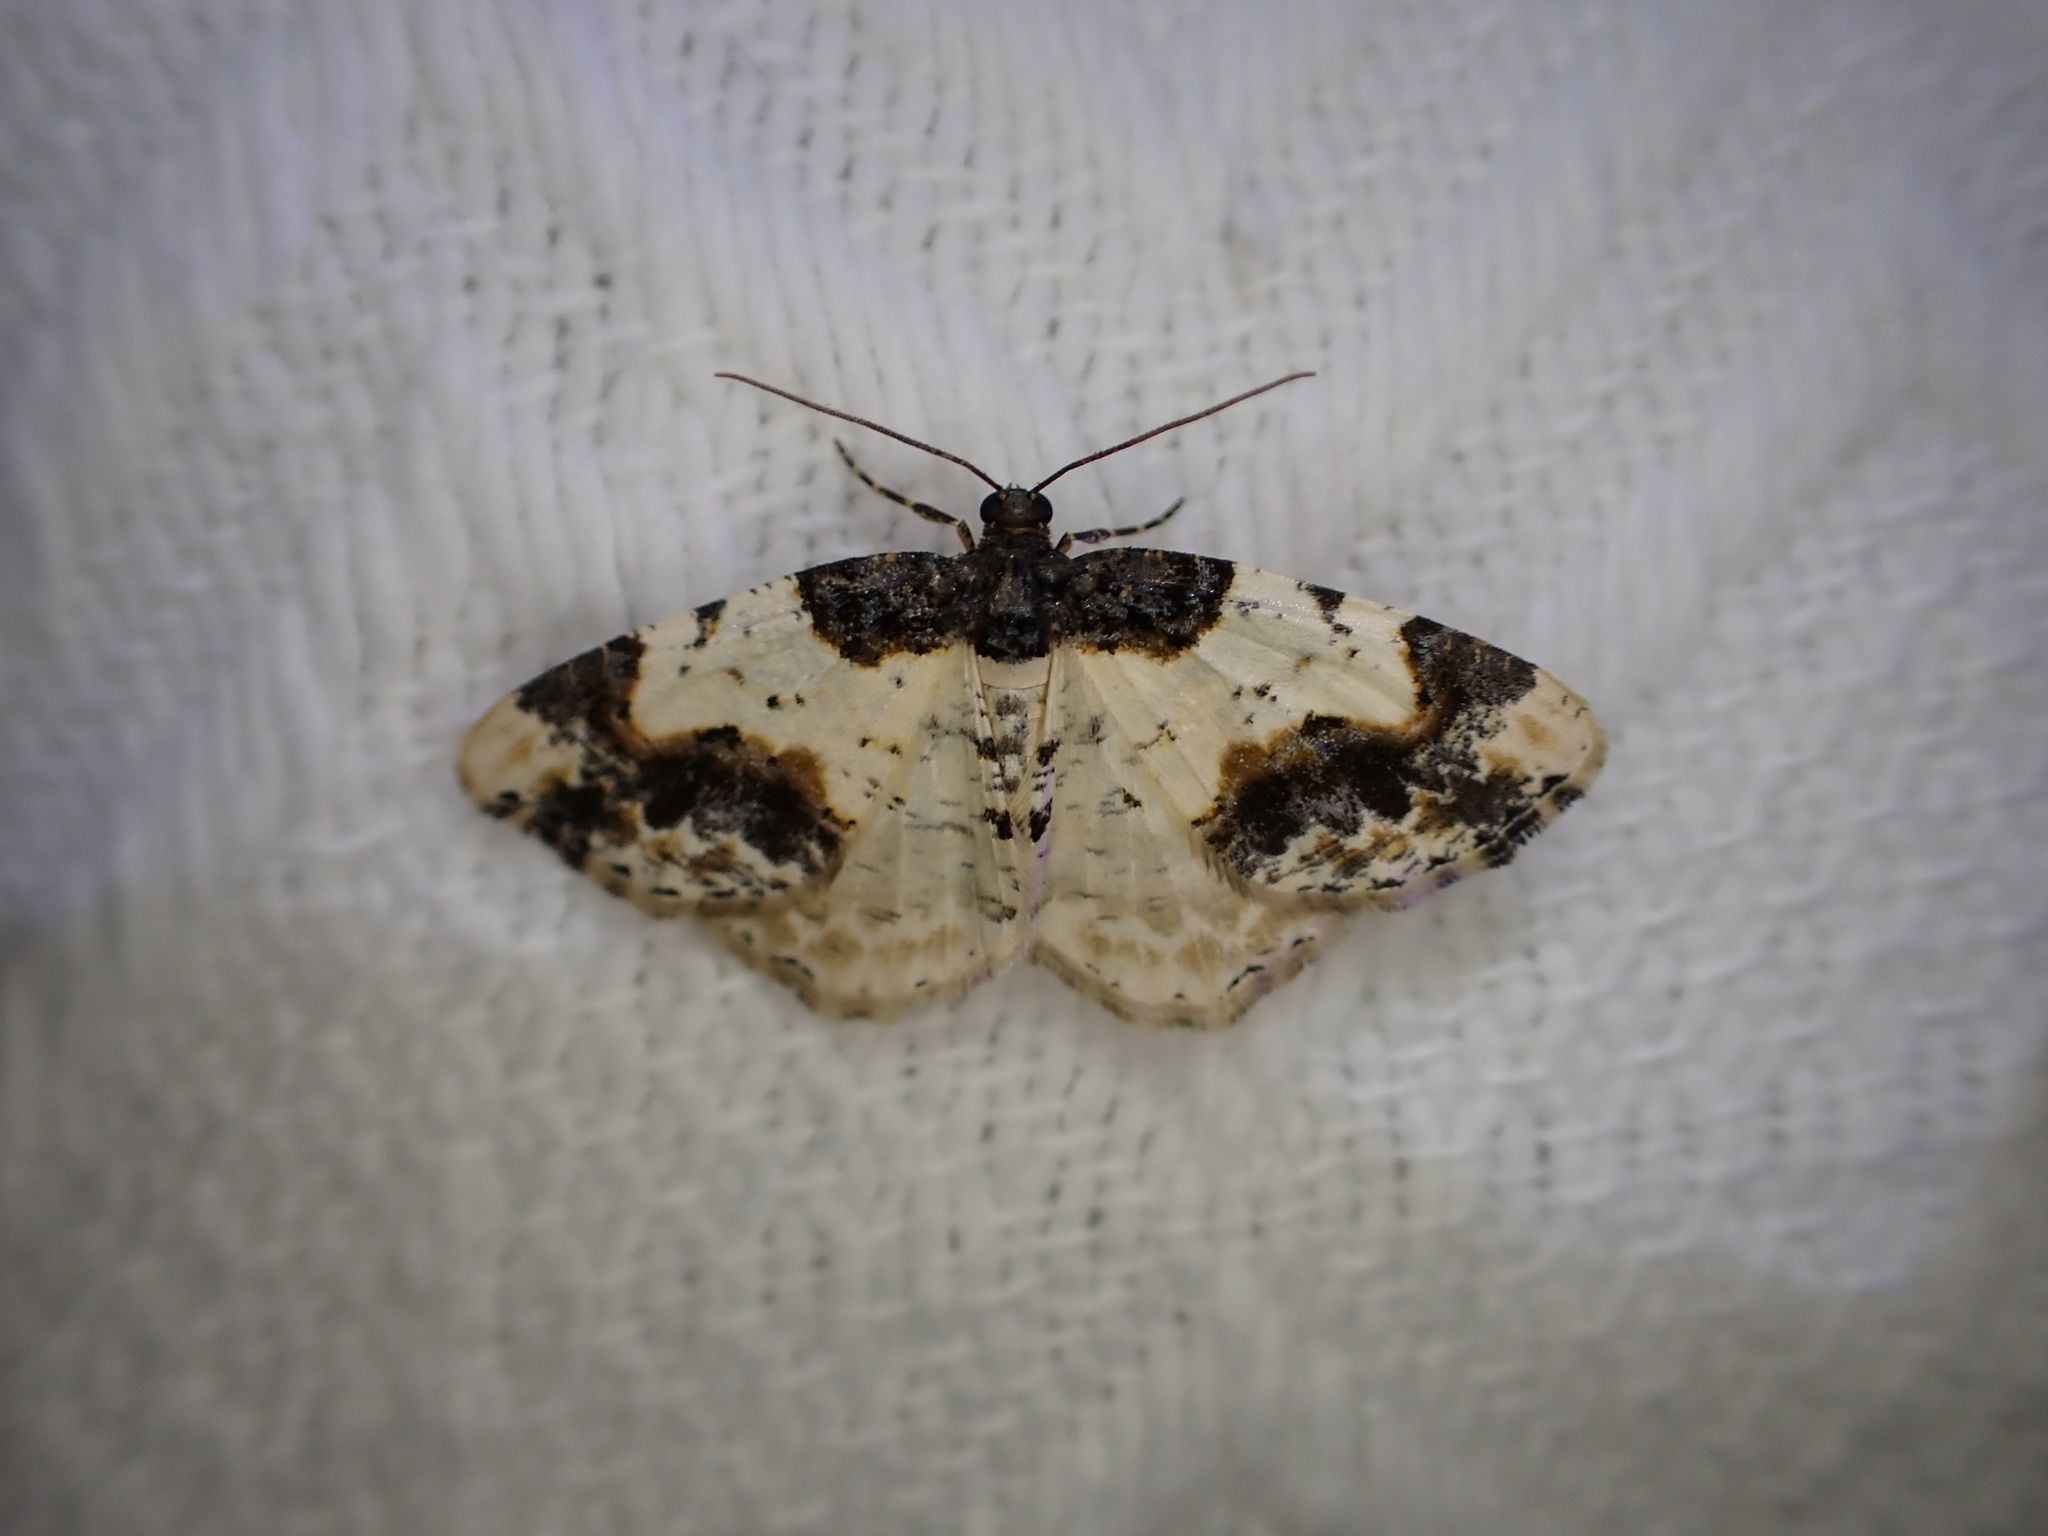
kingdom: Animalia
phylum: Arthropoda
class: Insecta
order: Lepidoptera
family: Geometridae
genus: Ligdia
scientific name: Ligdia adustata
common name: Scorched carpet
